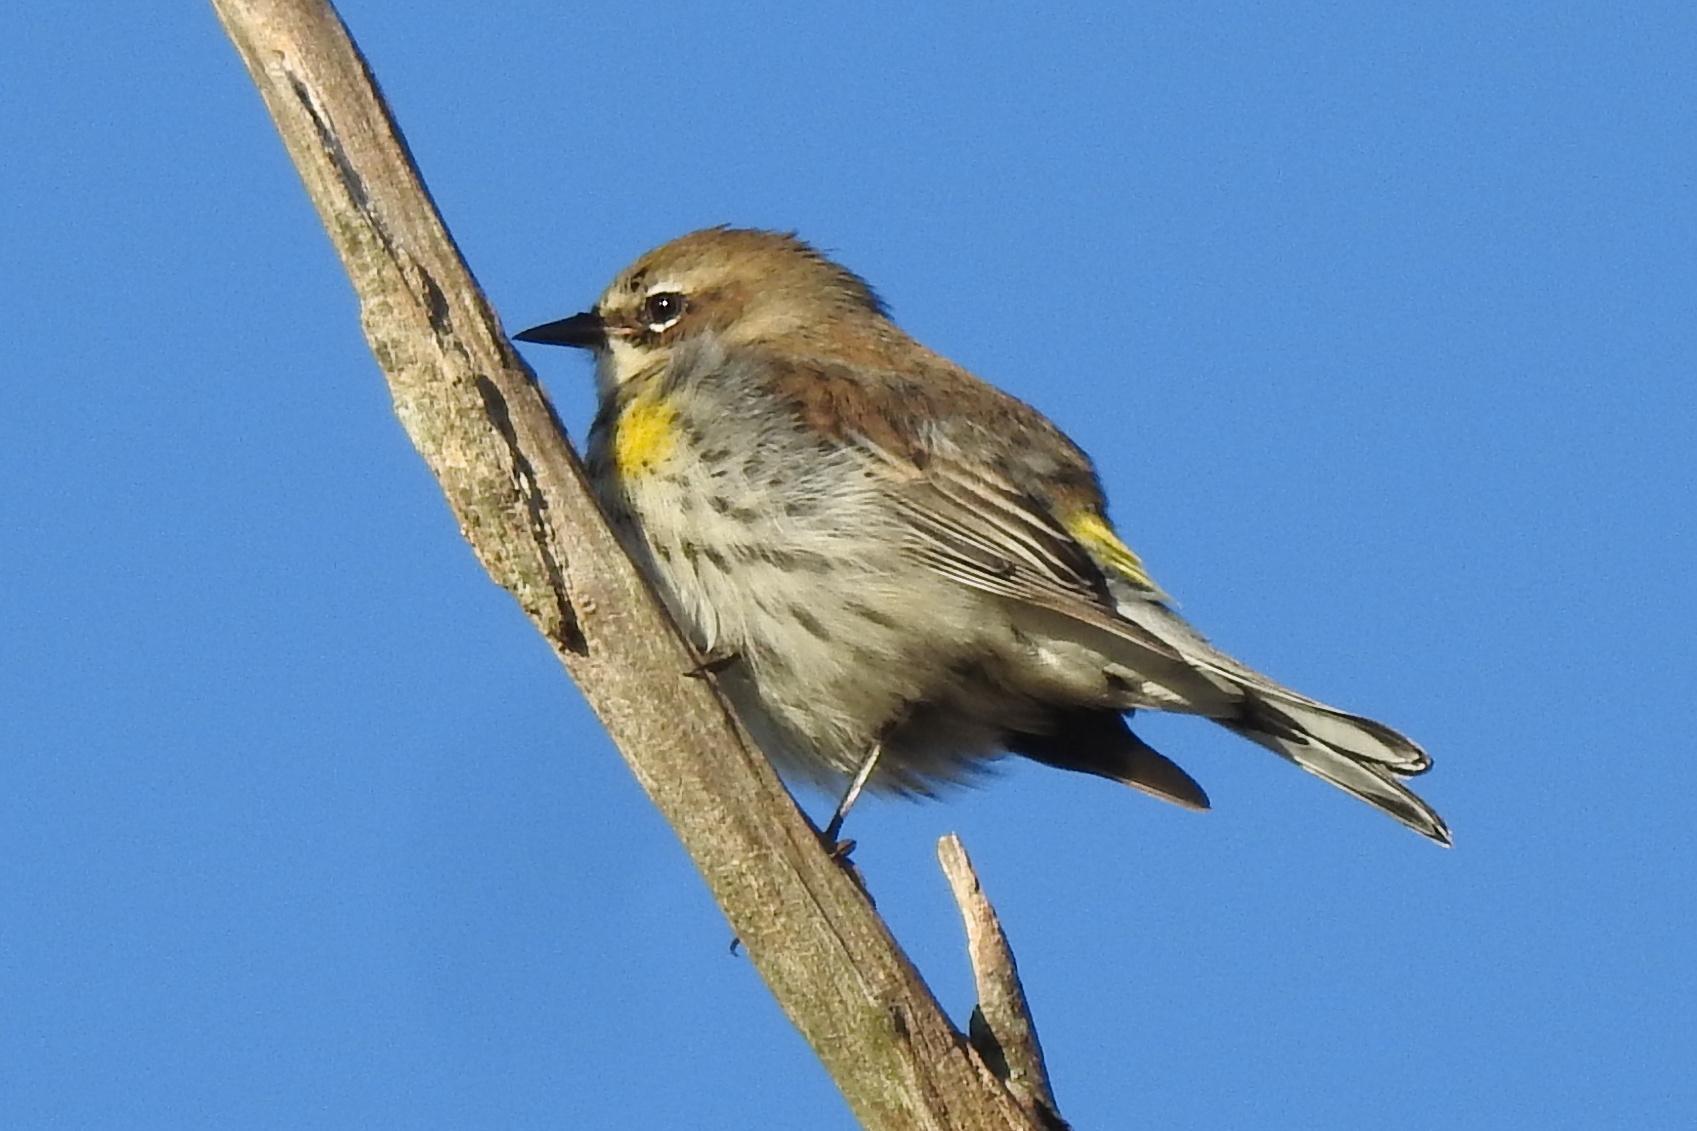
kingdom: Animalia
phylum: Chordata
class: Aves
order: Passeriformes
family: Parulidae
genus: Setophaga
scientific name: Setophaga coronata
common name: Myrtle warbler
